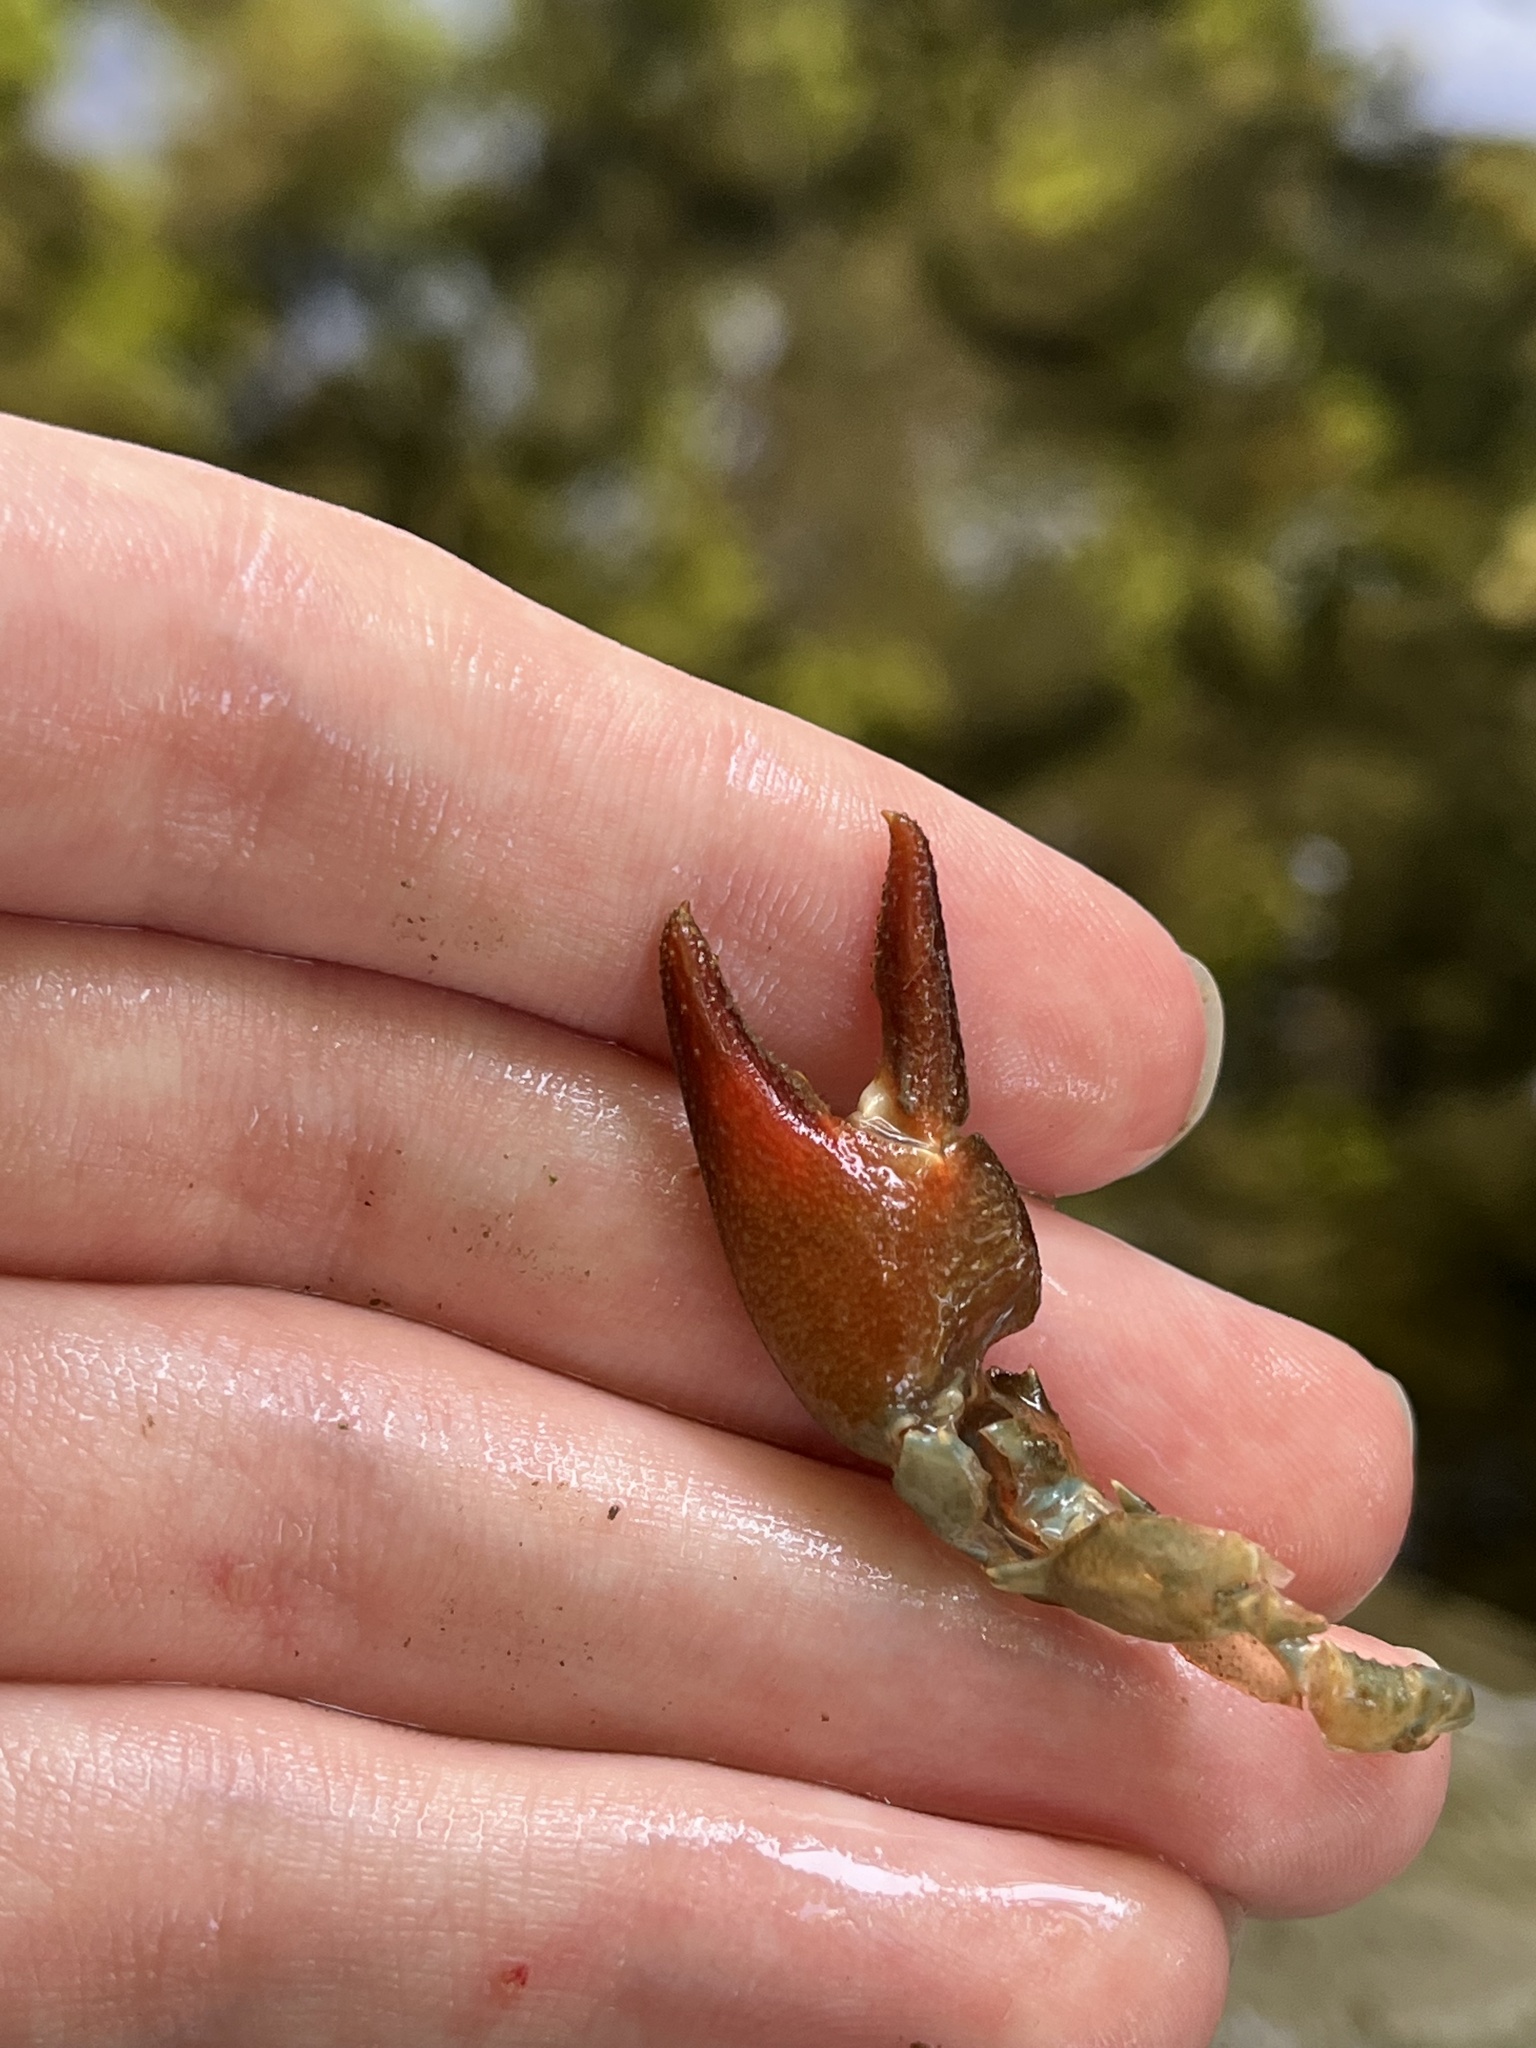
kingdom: Animalia
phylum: Arthropoda
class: Malacostraca
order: Decapoda
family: Astacidae
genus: Pacifastacus
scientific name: Pacifastacus leniusculus
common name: Signal crayfish
